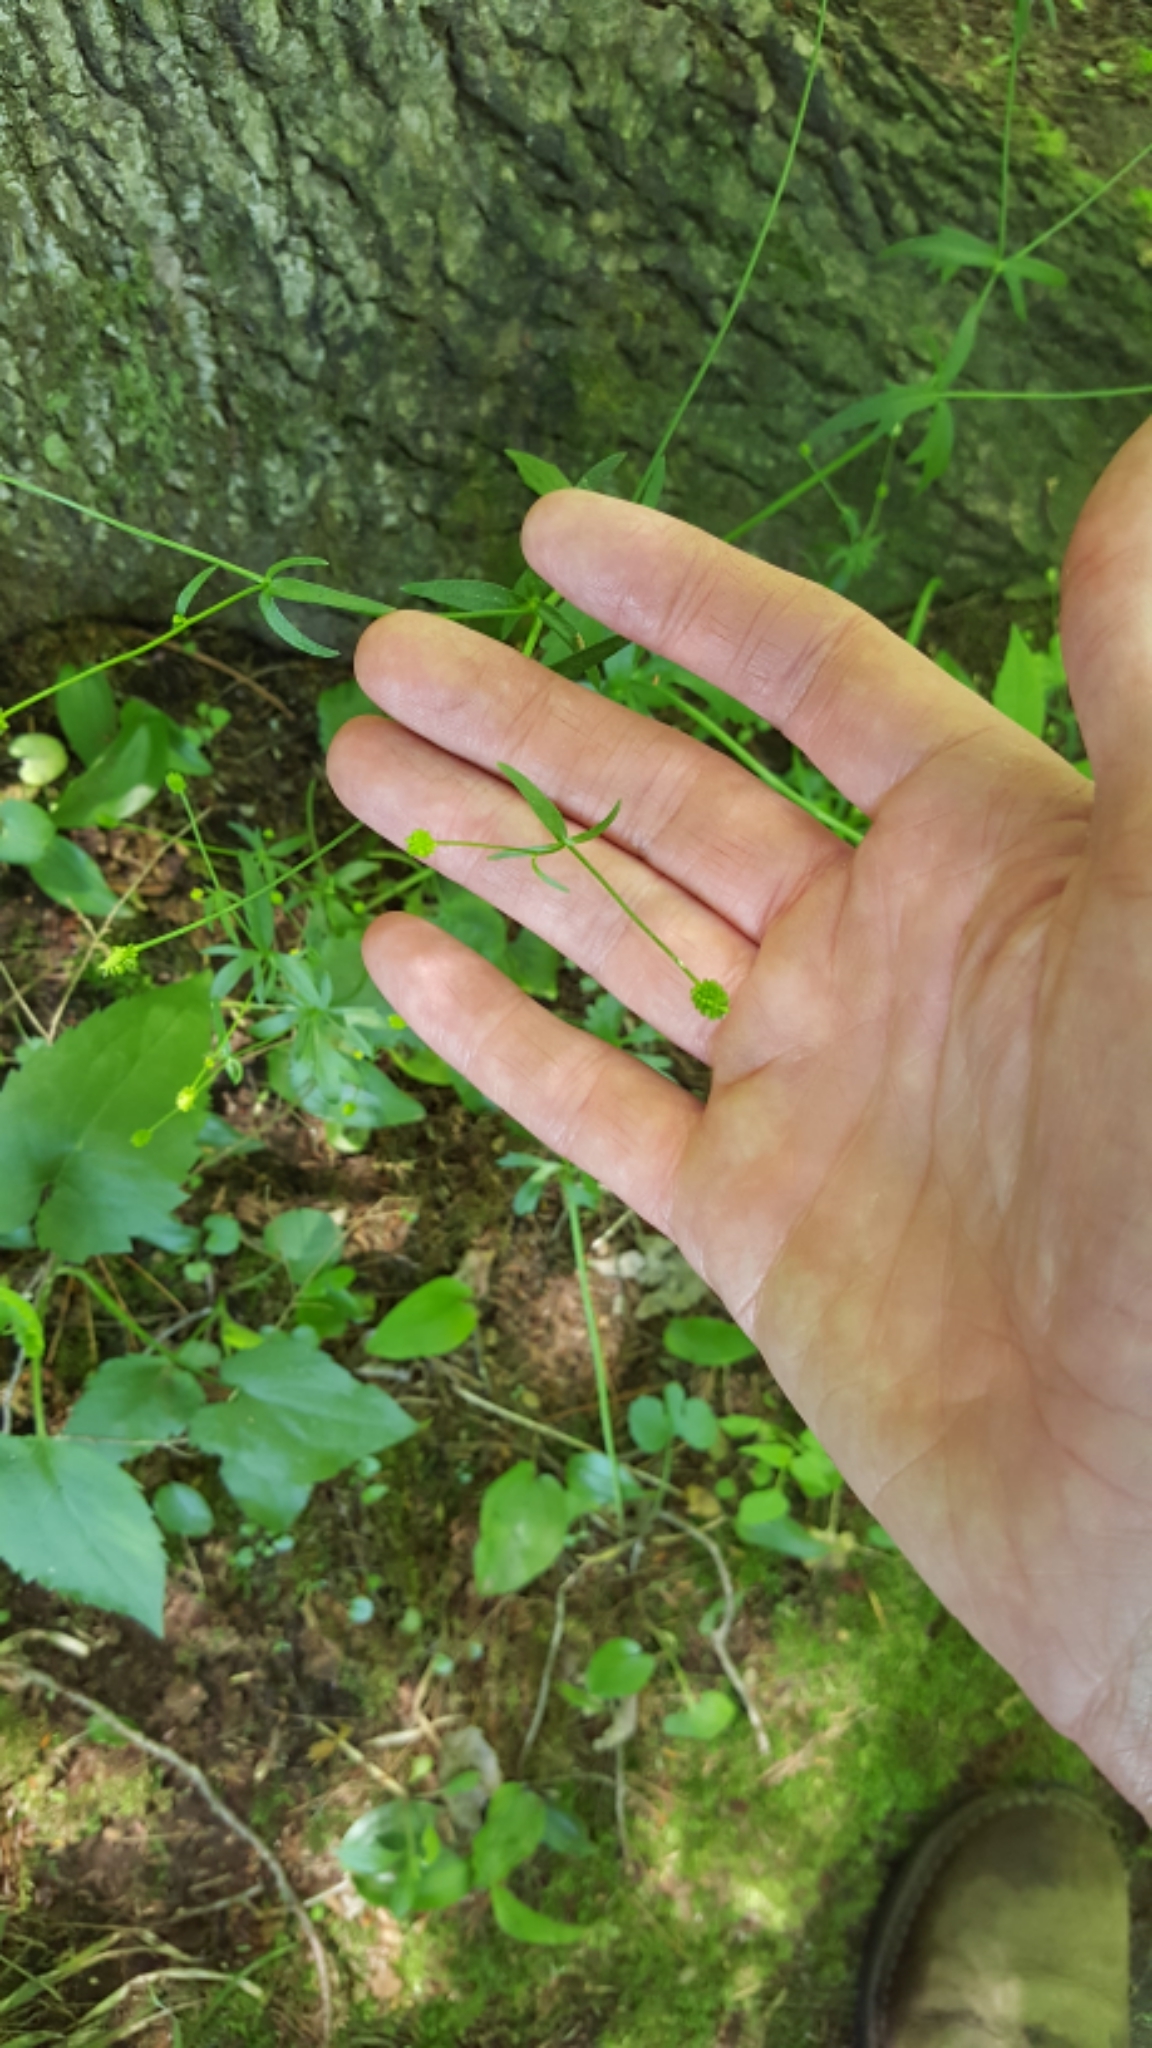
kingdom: Plantae
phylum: Tracheophyta
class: Magnoliopsida
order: Ranunculales
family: Ranunculaceae
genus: Ranunculus
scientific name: Ranunculus abortivus
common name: Early wood buttercup
